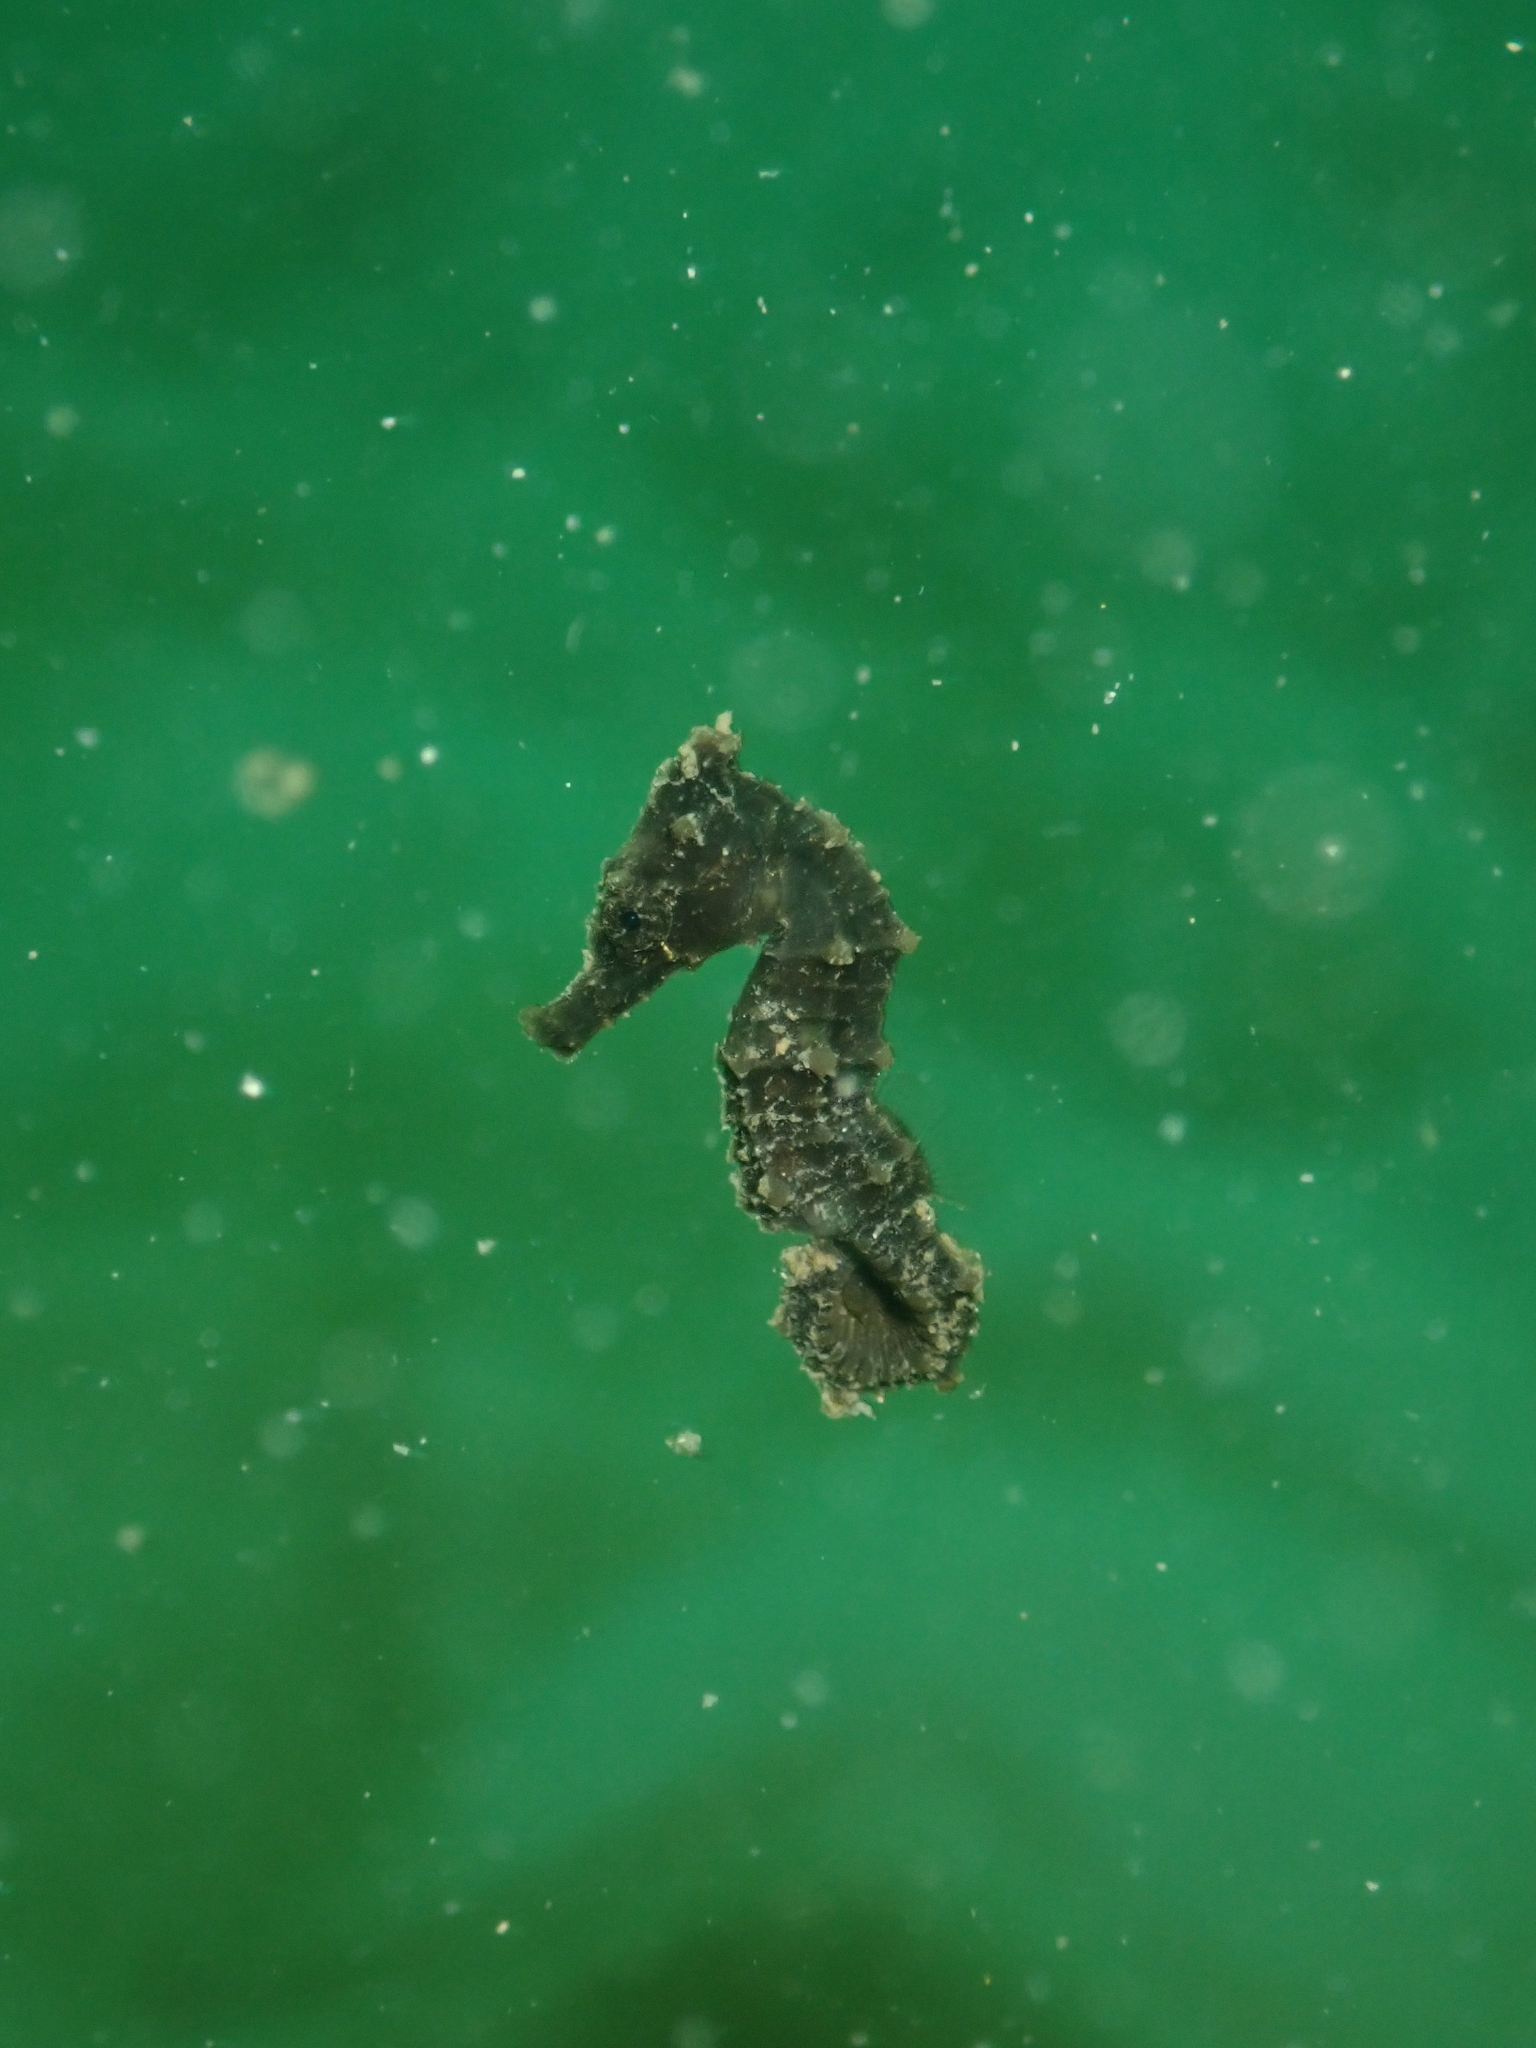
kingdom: Animalia
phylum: Chordata
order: Syngnathiformes
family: Syngnathidae
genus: Hippocampus
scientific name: Hippocampus kuda
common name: Spotted seahorse
